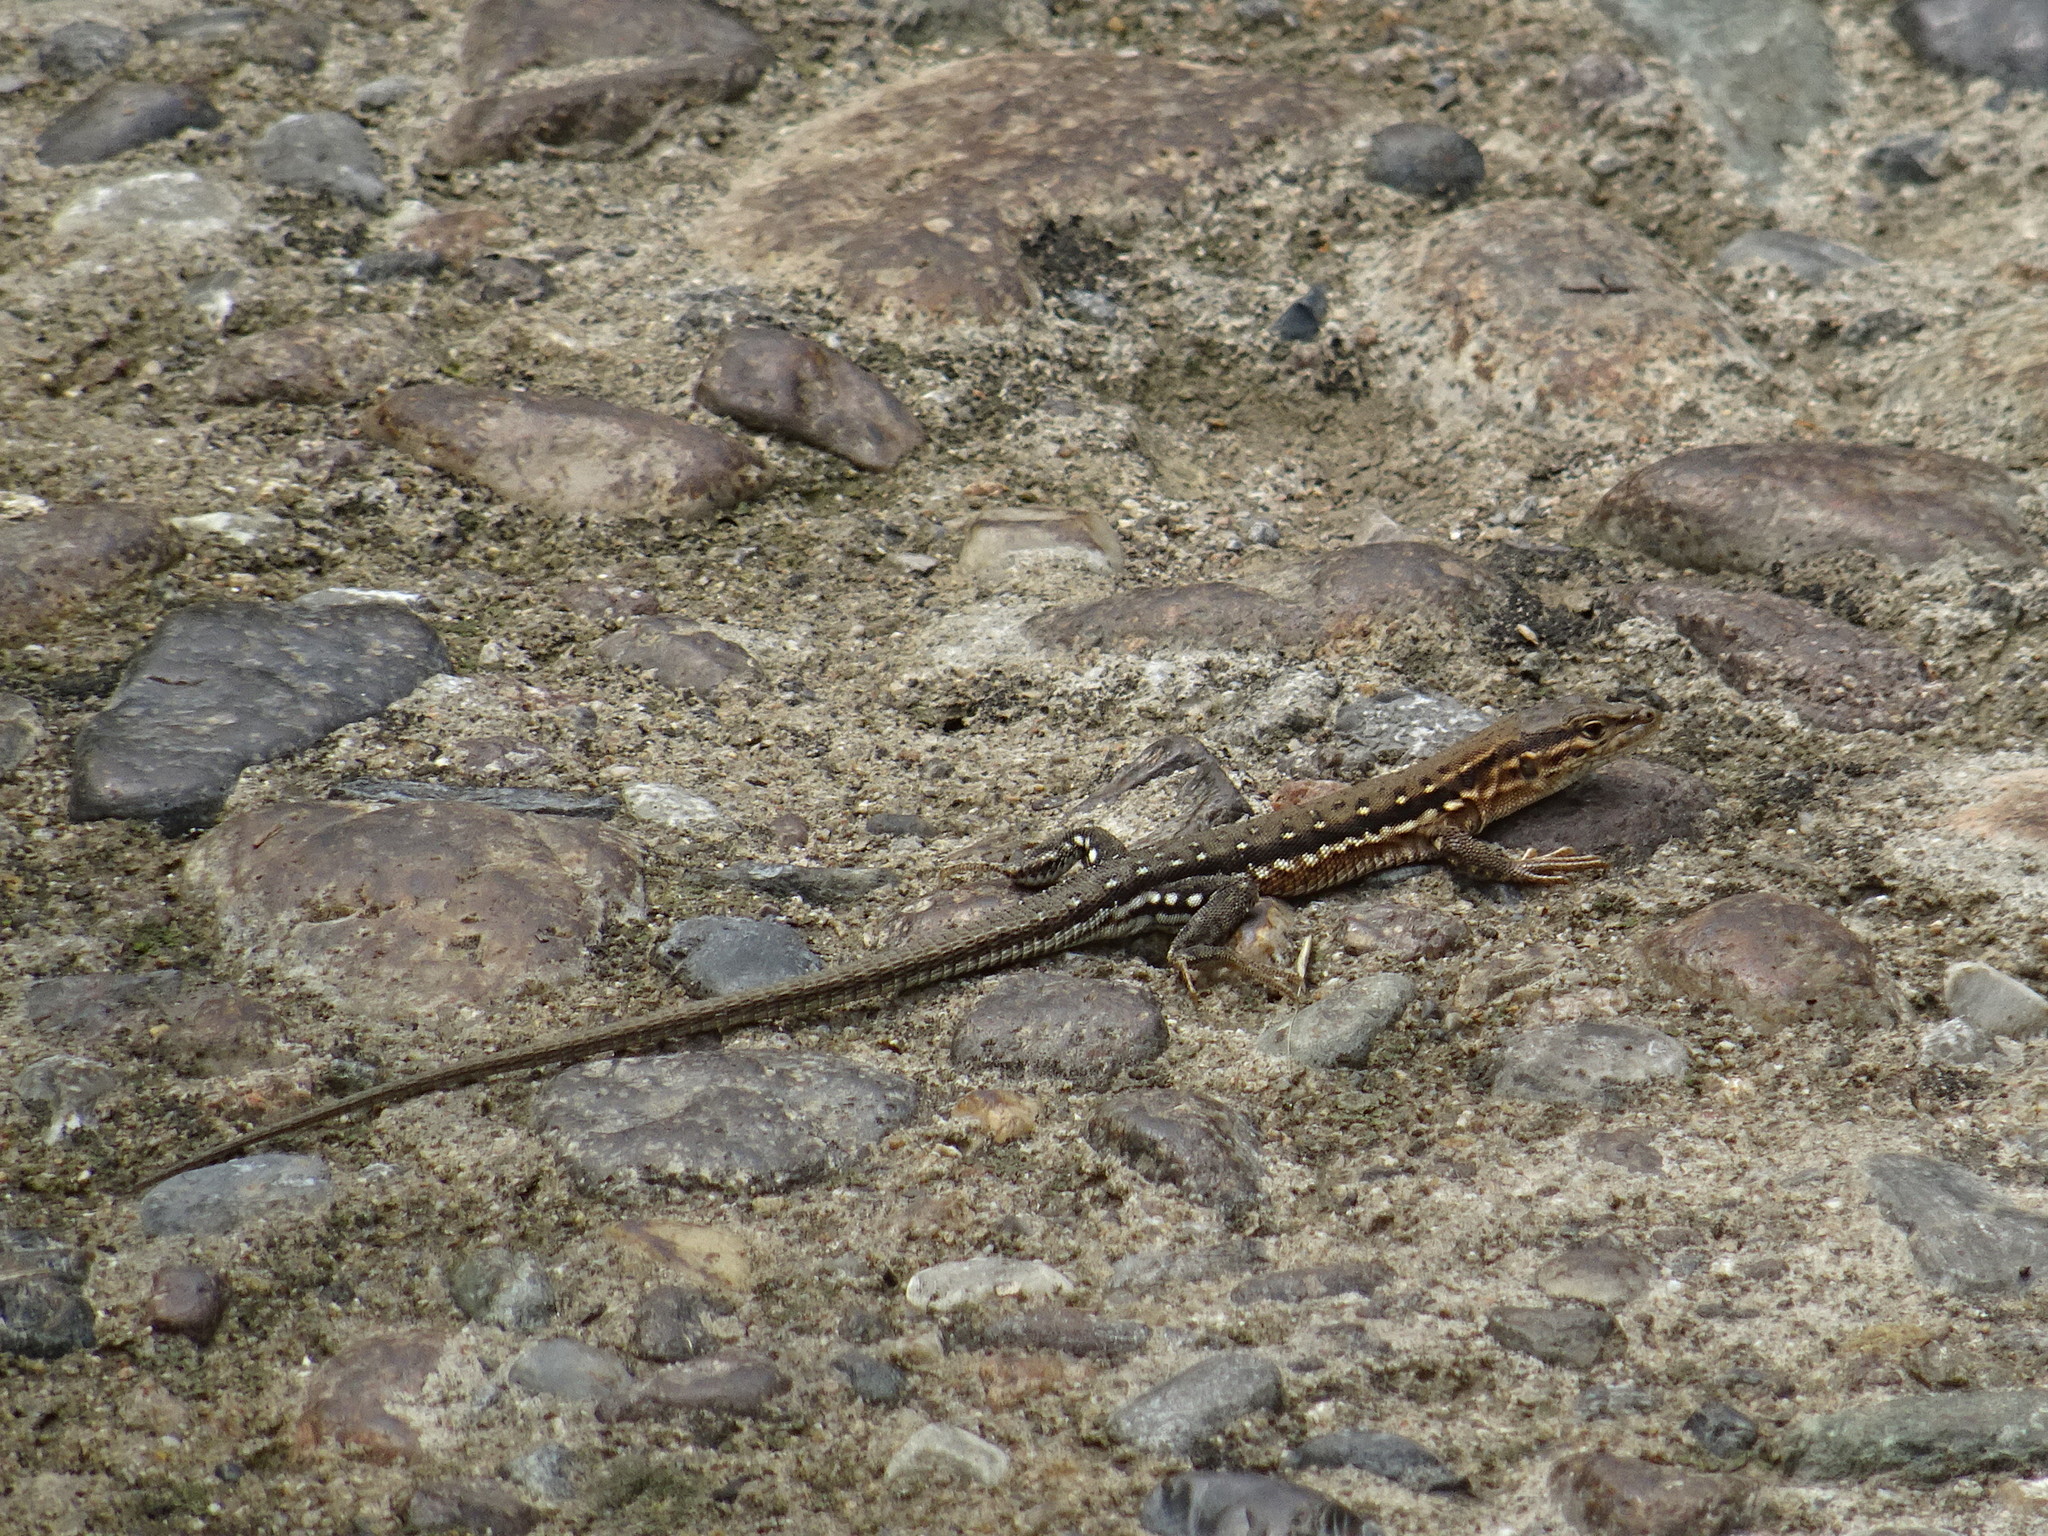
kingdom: Animalia
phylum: Chordata
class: Squamata
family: Lacertidae
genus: Eremias
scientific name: Eremias brenchleyi
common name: Ordos racerunner
